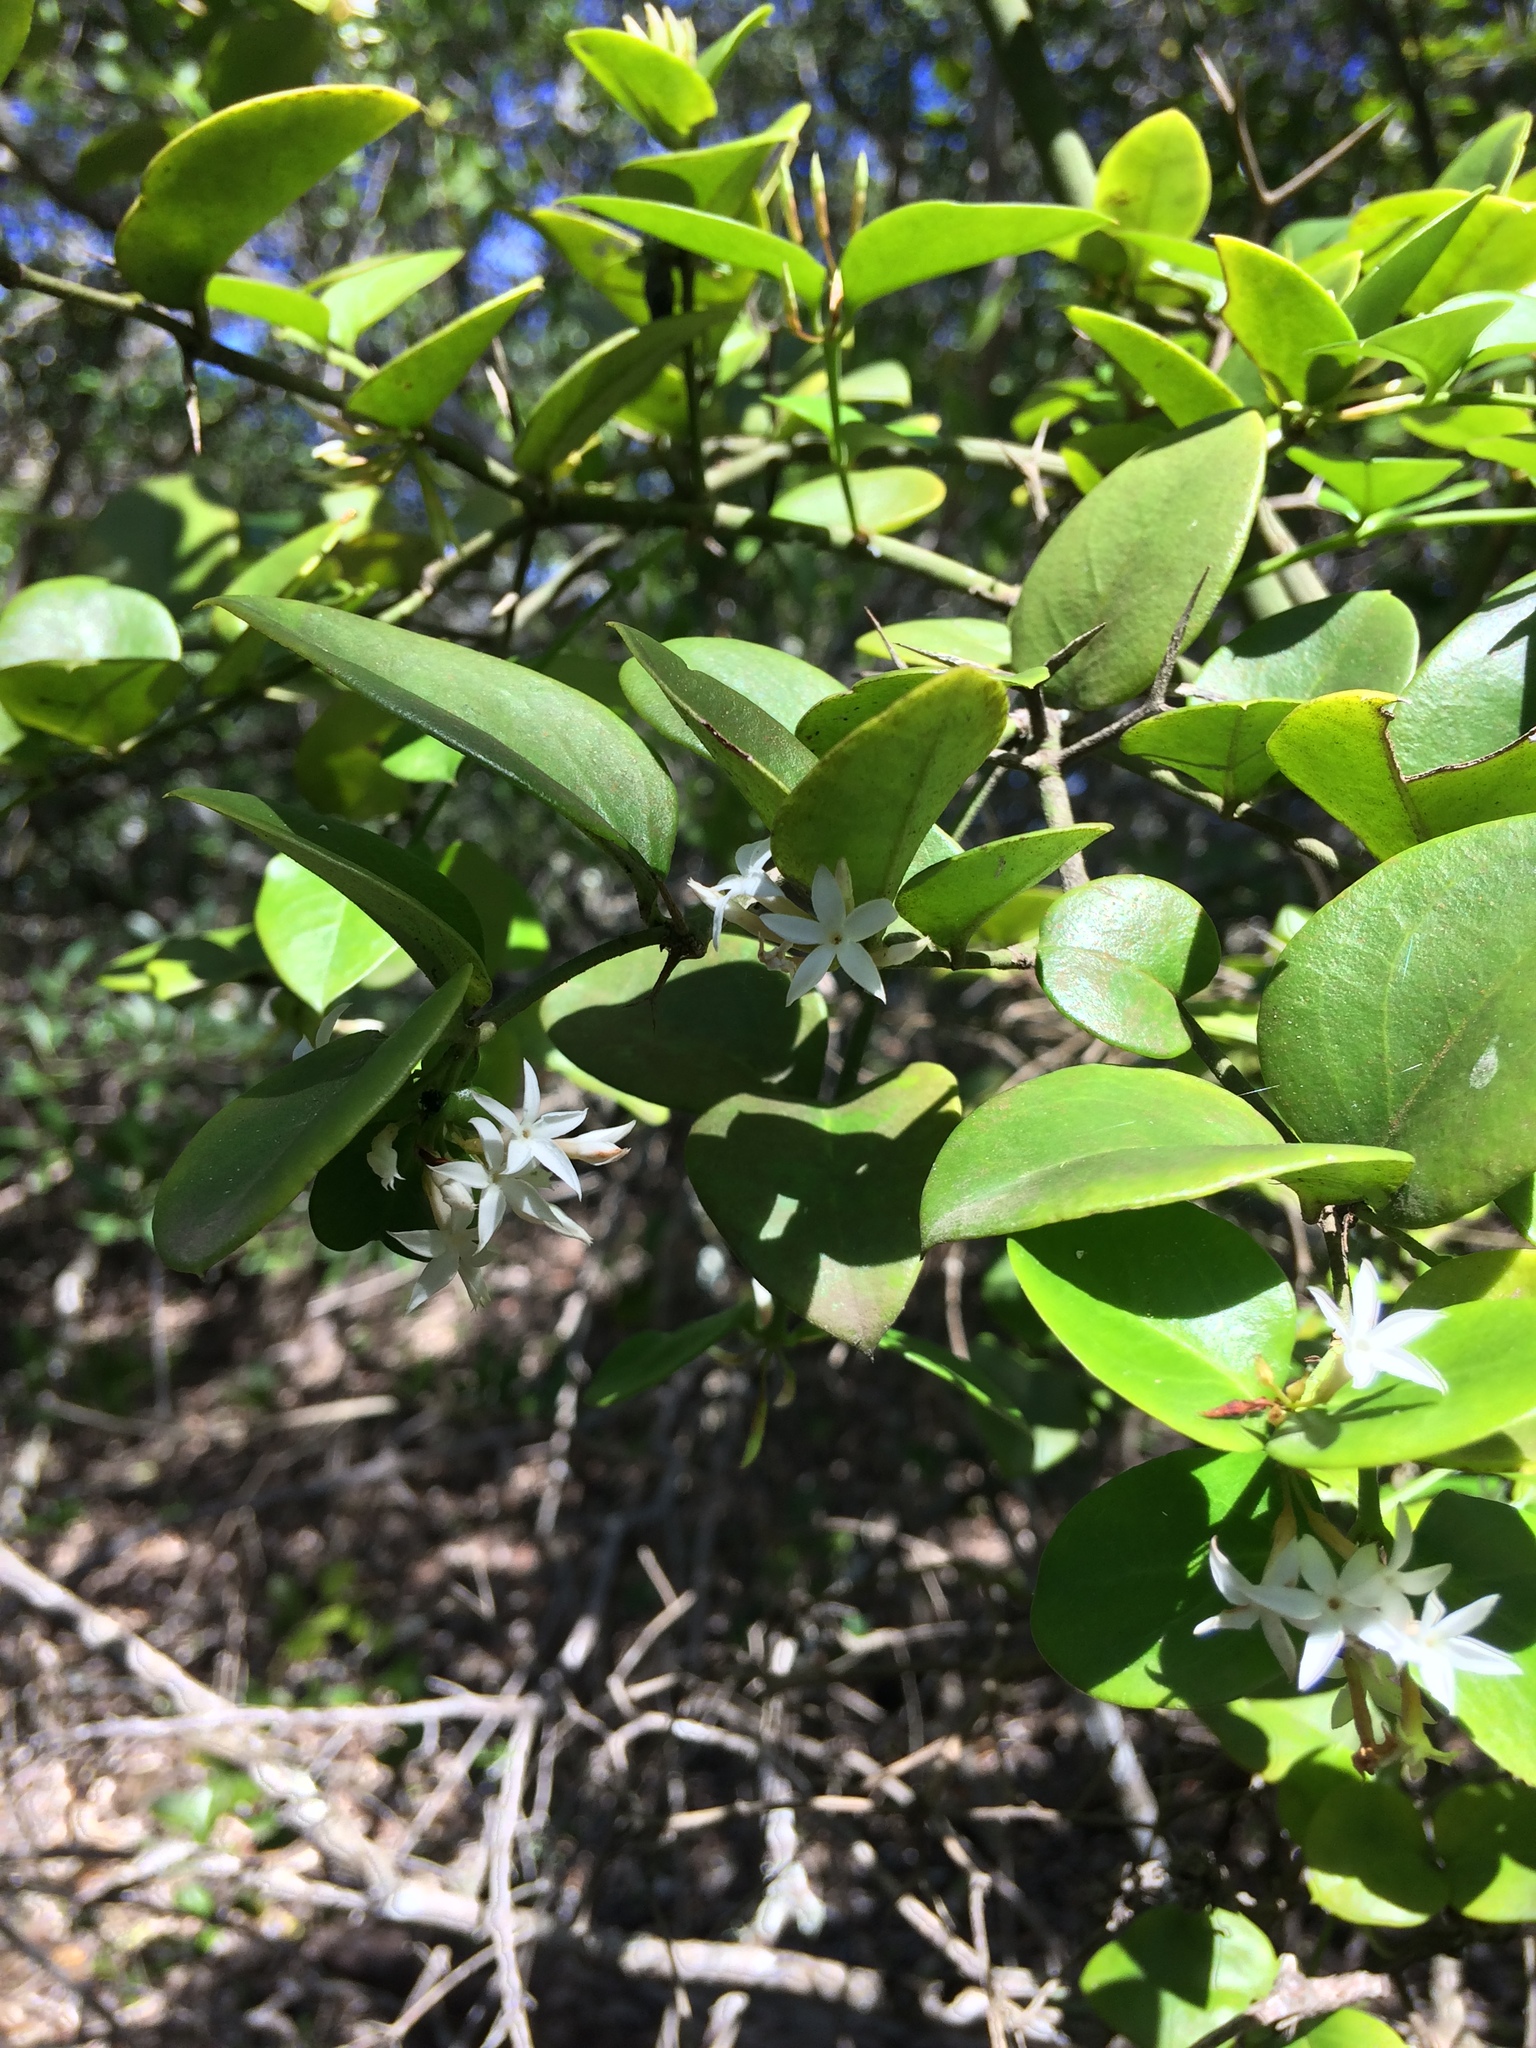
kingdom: Plantae
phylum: Tracheophyta
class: Magnoliopsida
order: Gentianales
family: Apocynaceae
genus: Carissa
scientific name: Carissa bispinosa
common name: Forest num-num
